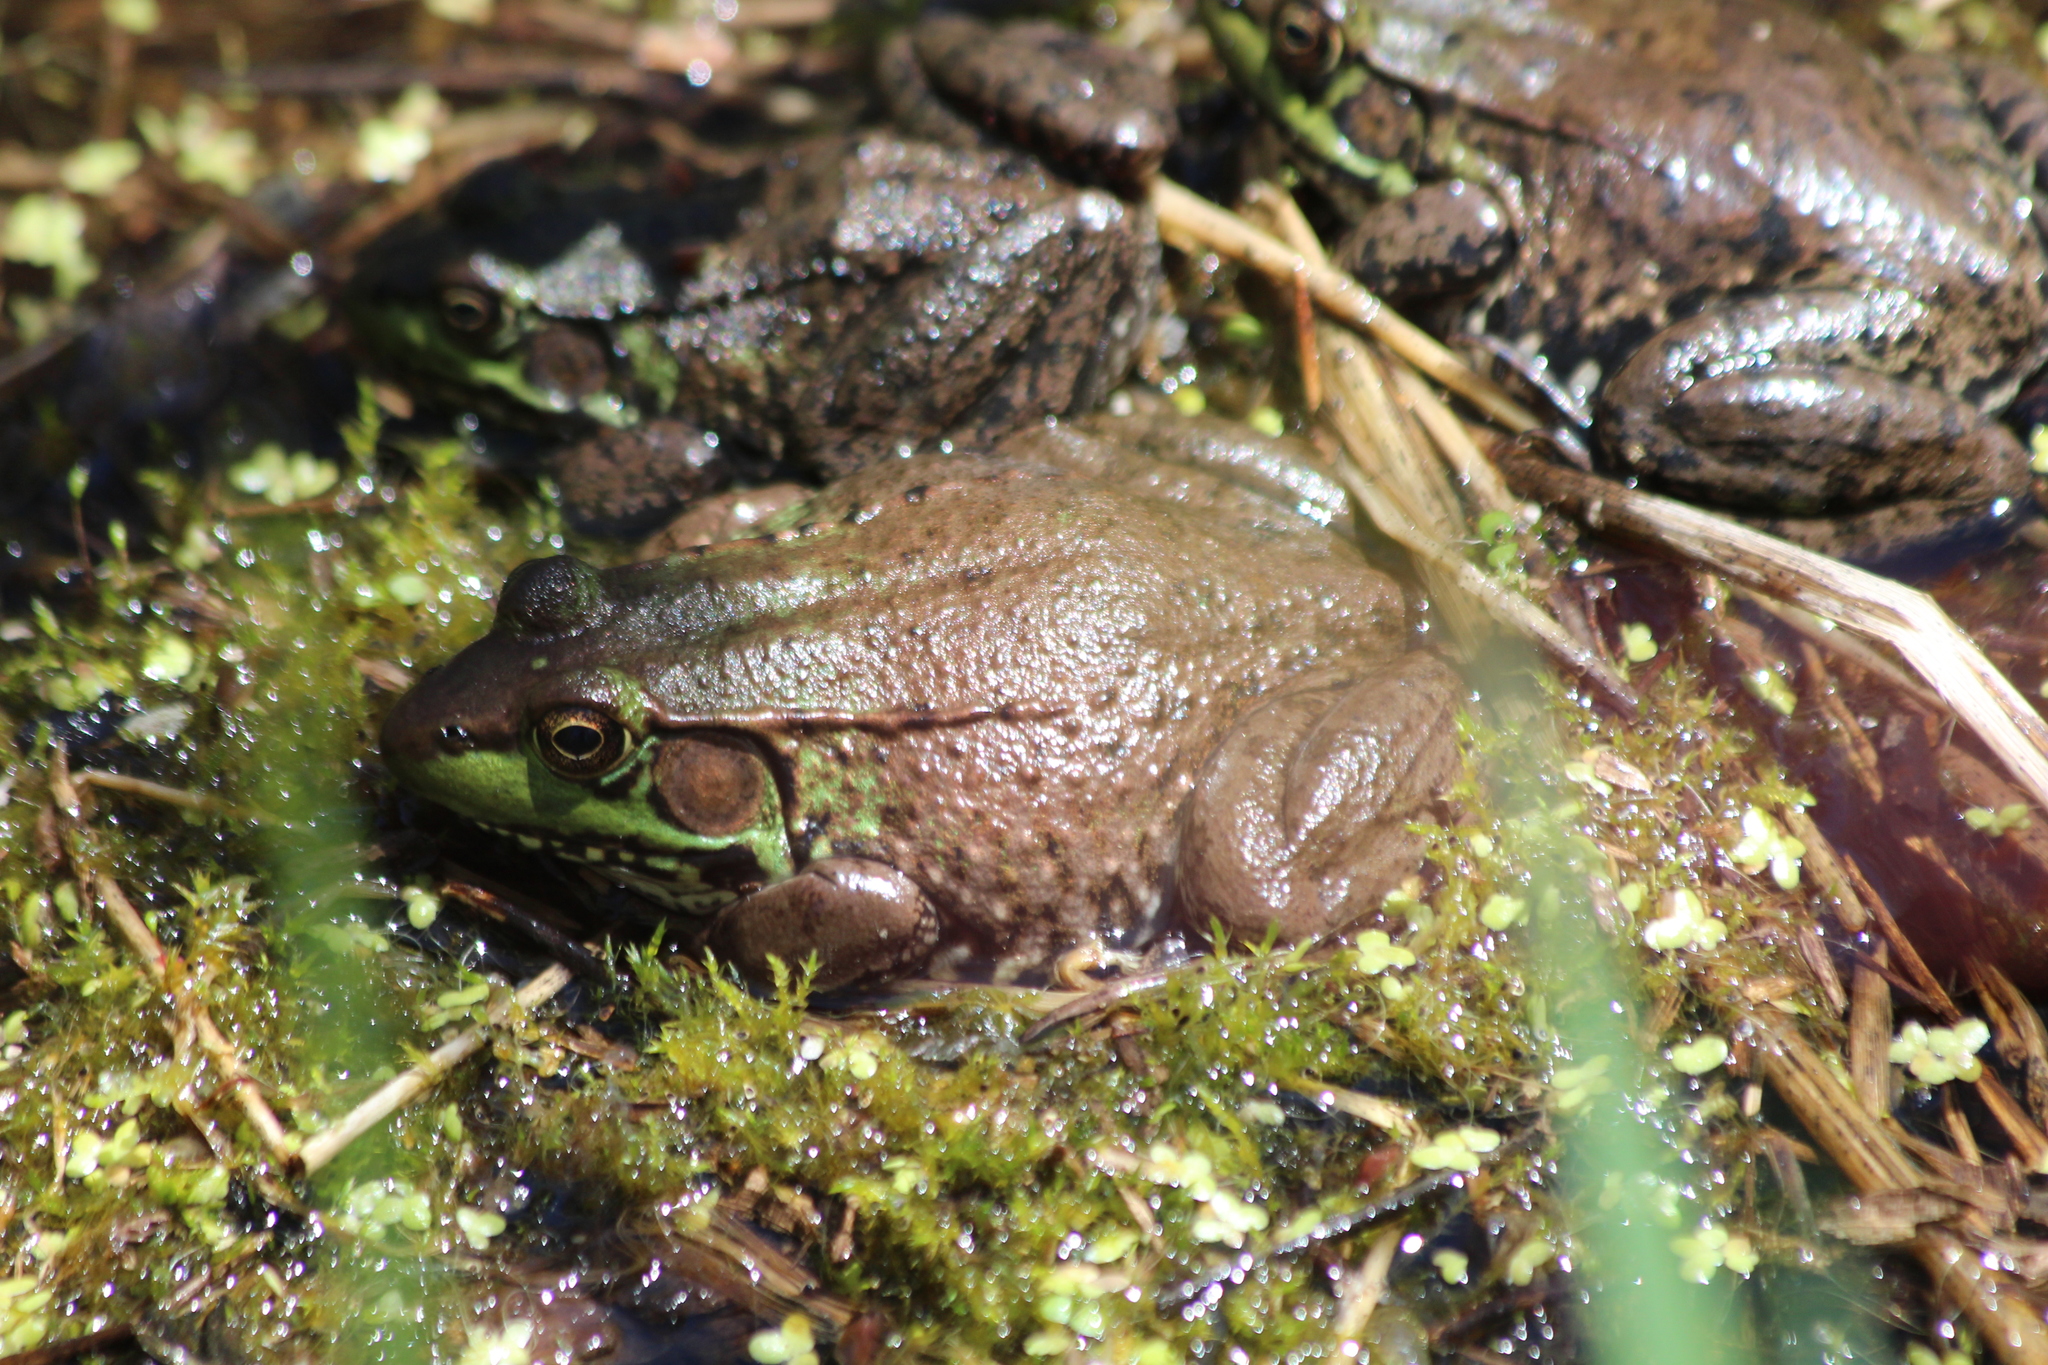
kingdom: Animalia
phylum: Chordata
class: Amphibia
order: Anura
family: Ranidae
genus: Lithobates
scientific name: Lithobates clamitans
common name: Green frog
